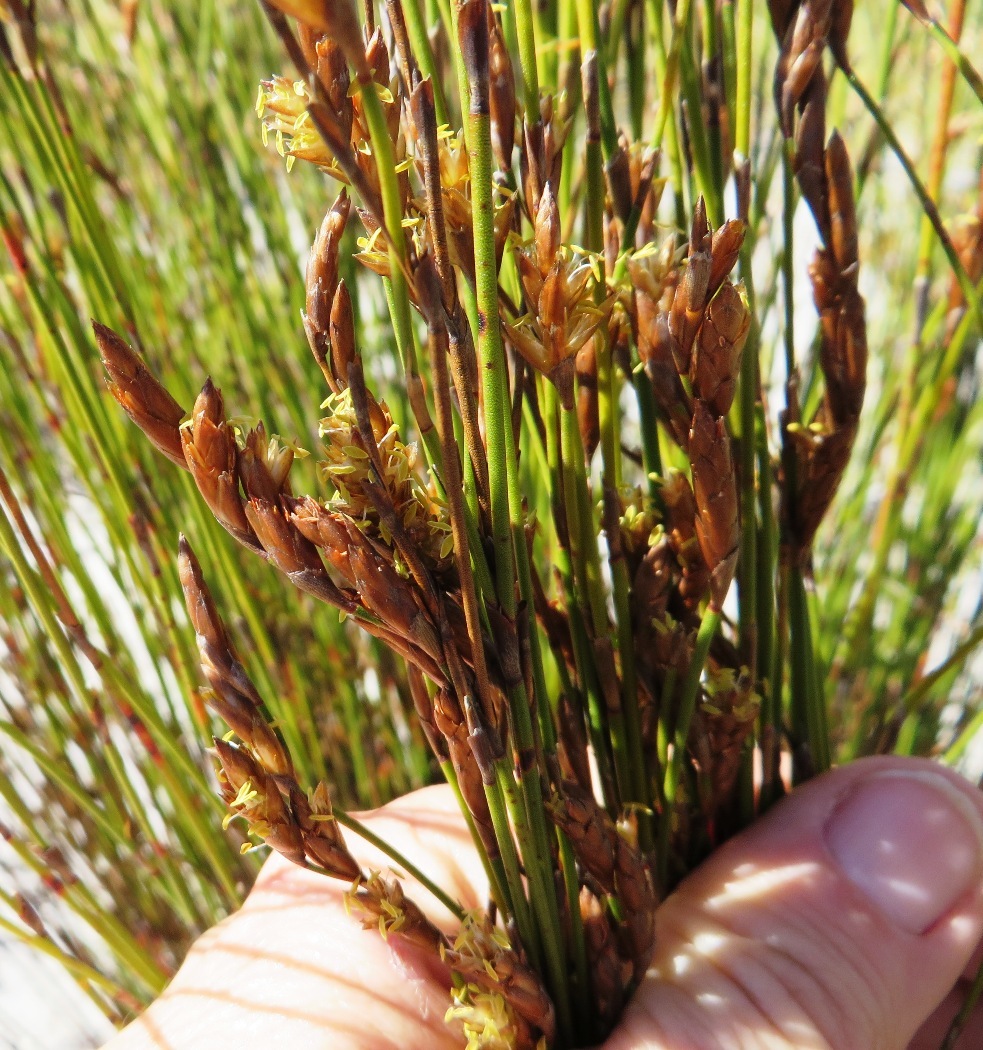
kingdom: Plantae
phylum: Tracheophyta
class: Liliopsida
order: Poales
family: Restionaceae
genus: Restio
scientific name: Restio triticeus
